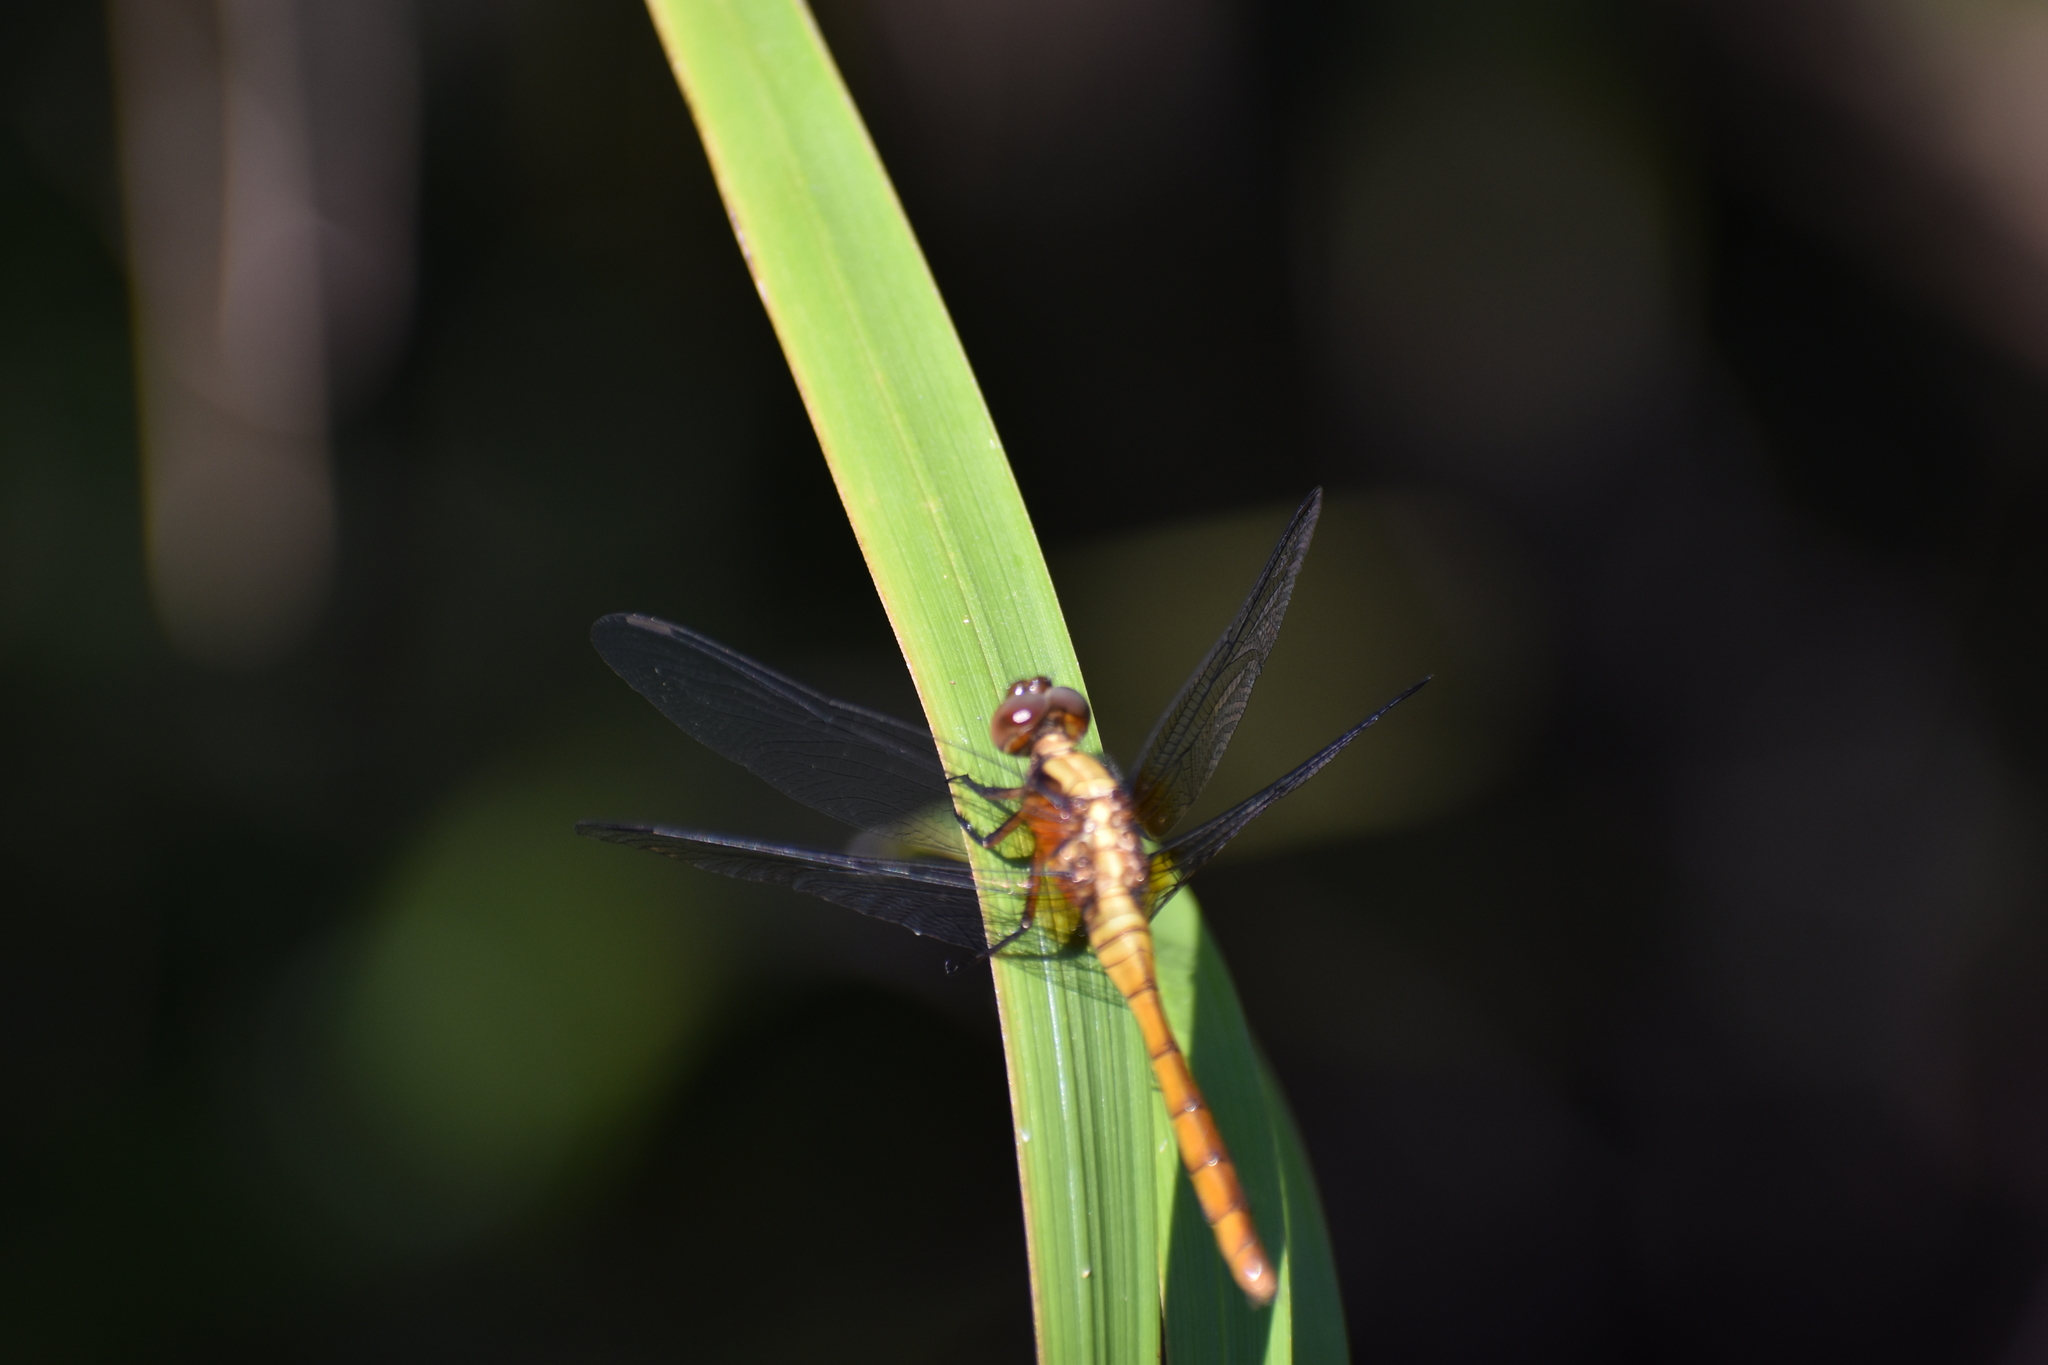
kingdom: Animalia
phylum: Arthropoda
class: Insecta
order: Odonata
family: Libellulidae
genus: Orthetrum
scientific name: Orthetrum villosovittatum
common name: Firery skimmer
